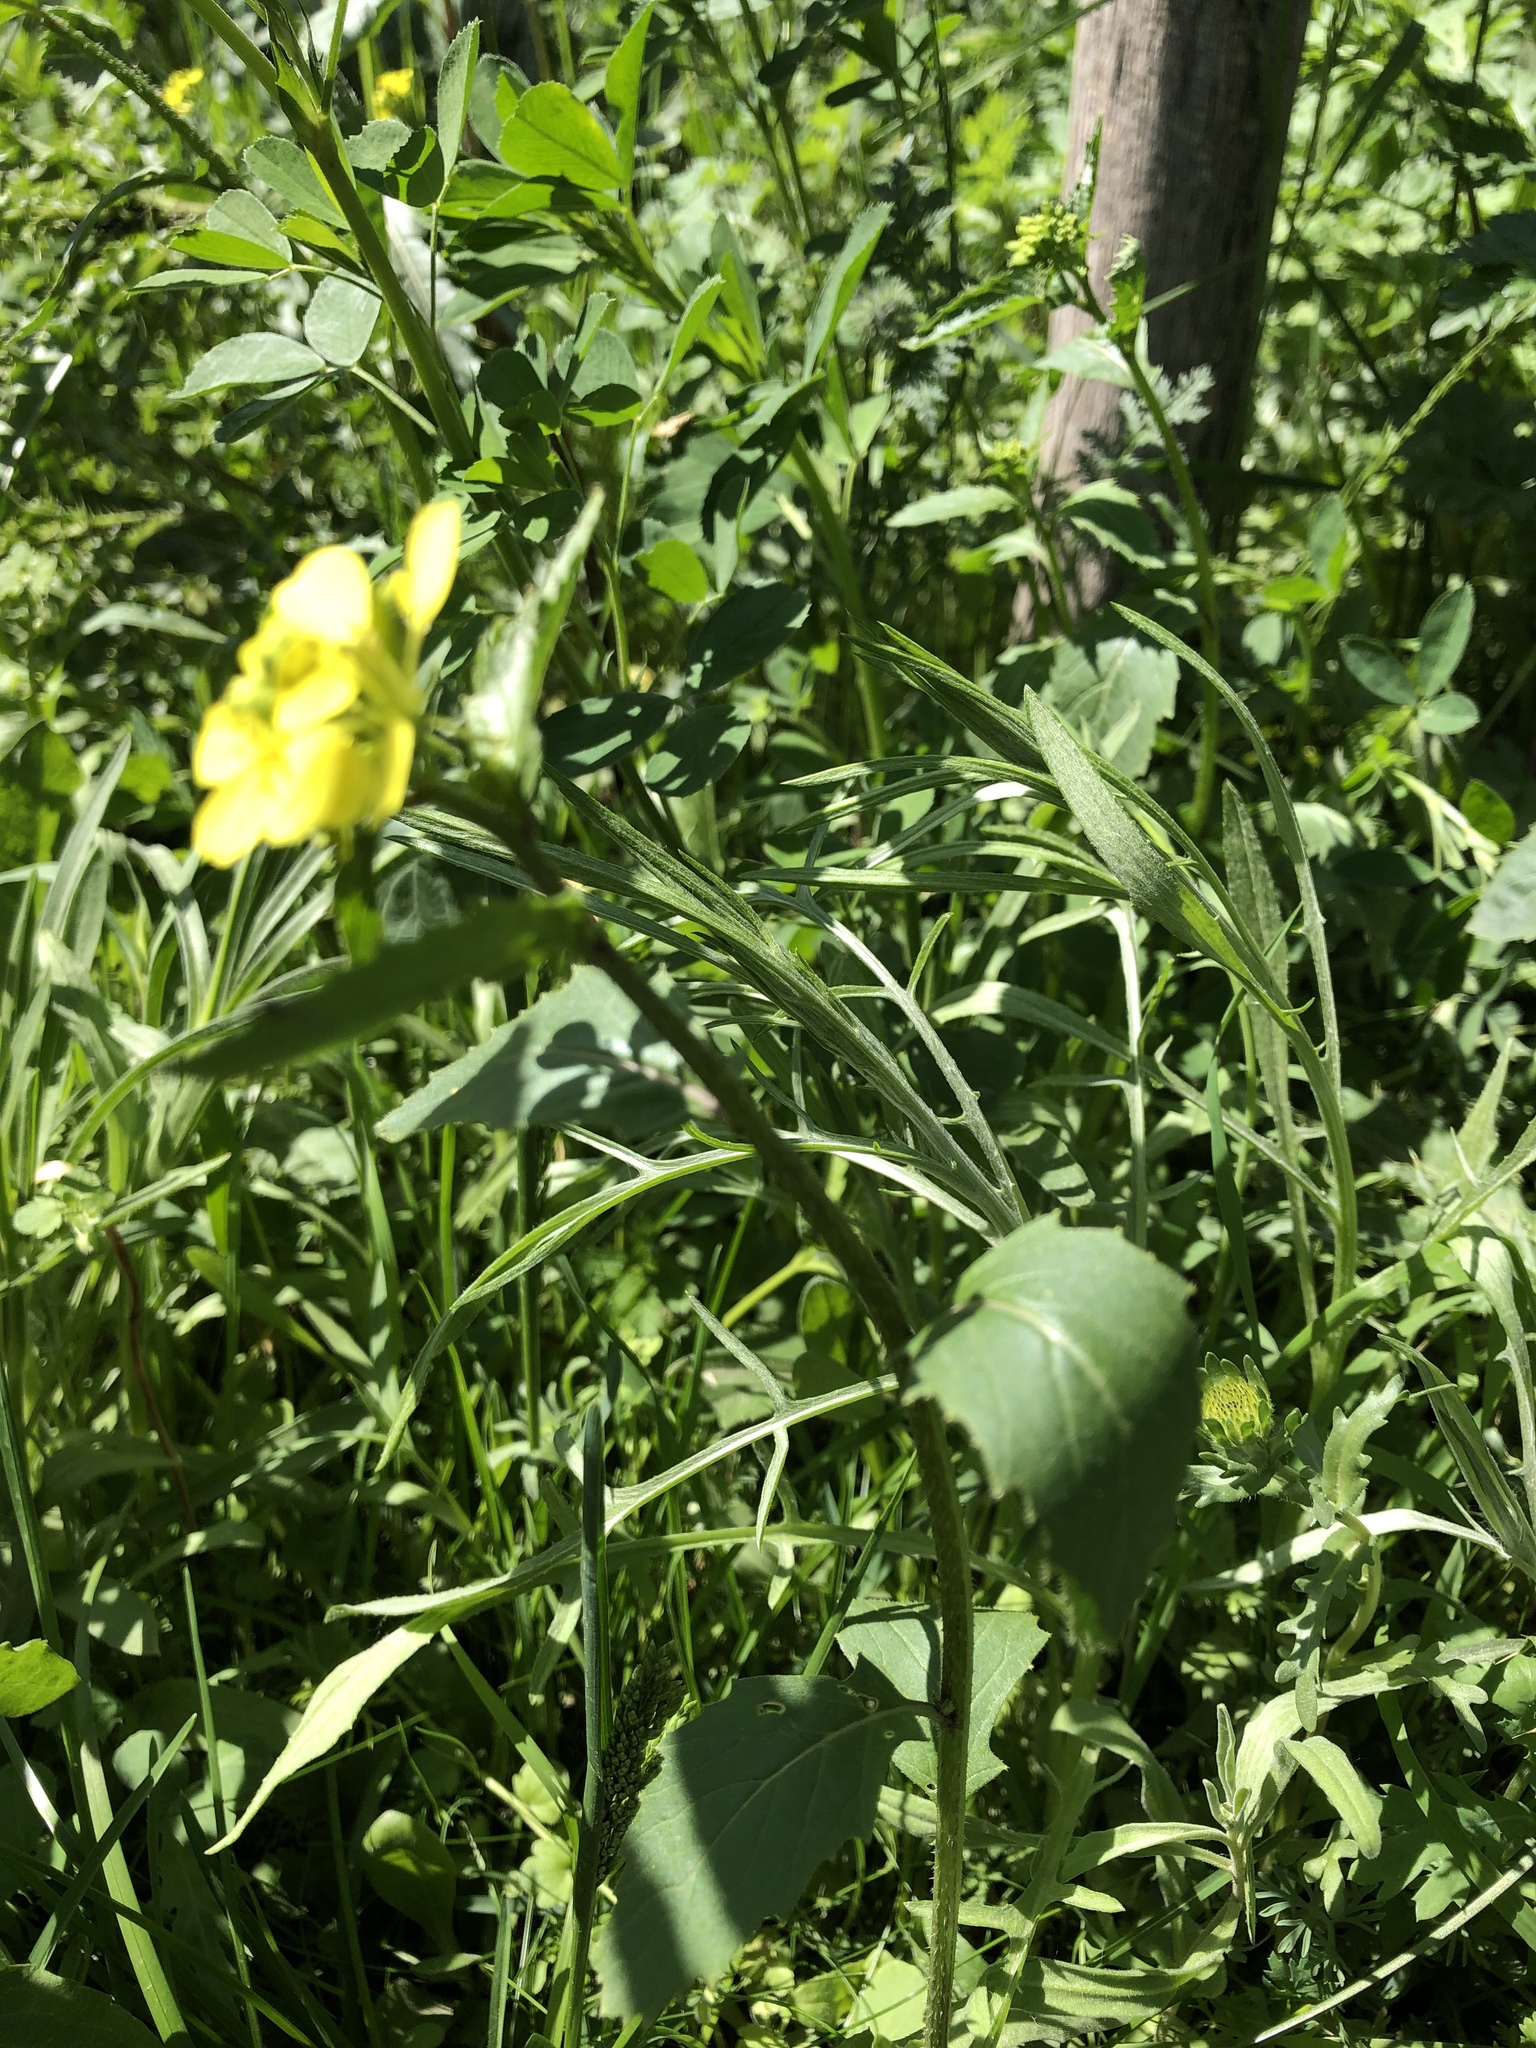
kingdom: Plantae
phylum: Tracheophyta
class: Magnoliopsida
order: Brassicales
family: Brassicaceae
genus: Sinapis
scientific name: Sinapis arvensis
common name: Charlock
